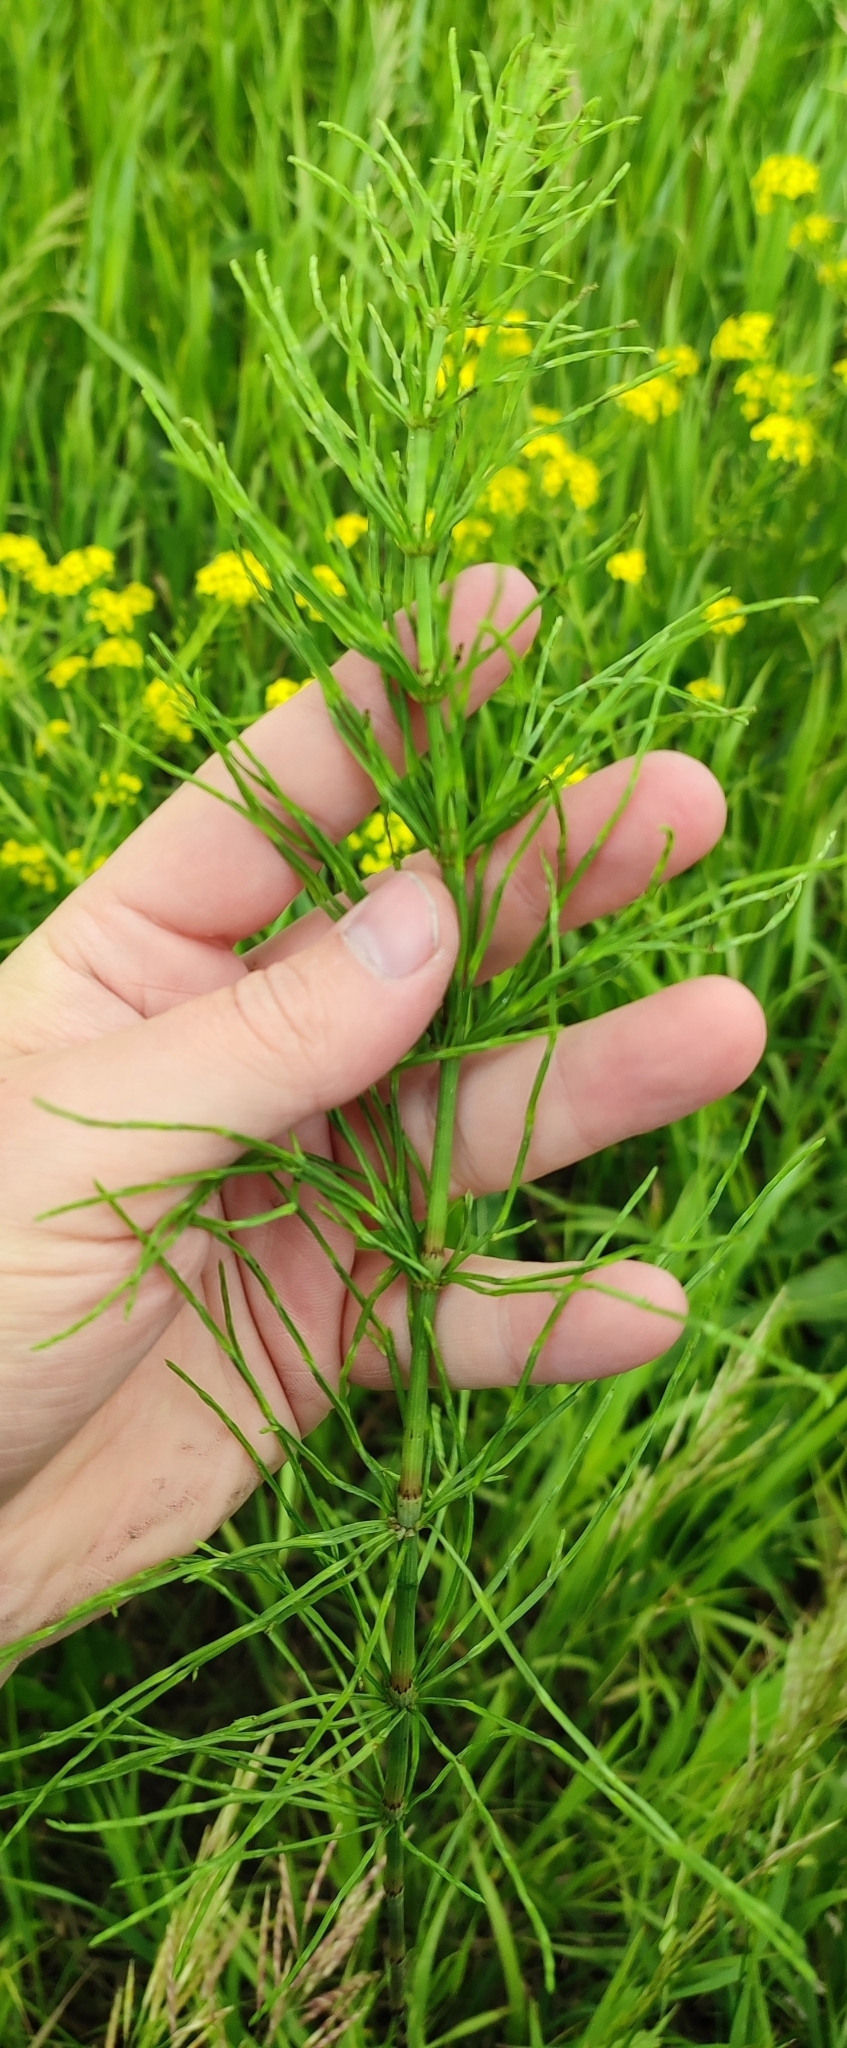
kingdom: Plantae
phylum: Tracheophyta
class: Polypodiopsida
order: Equisetales
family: Equisetaceae
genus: Equisetum
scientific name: Equisetum arvense
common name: Field horsetail
